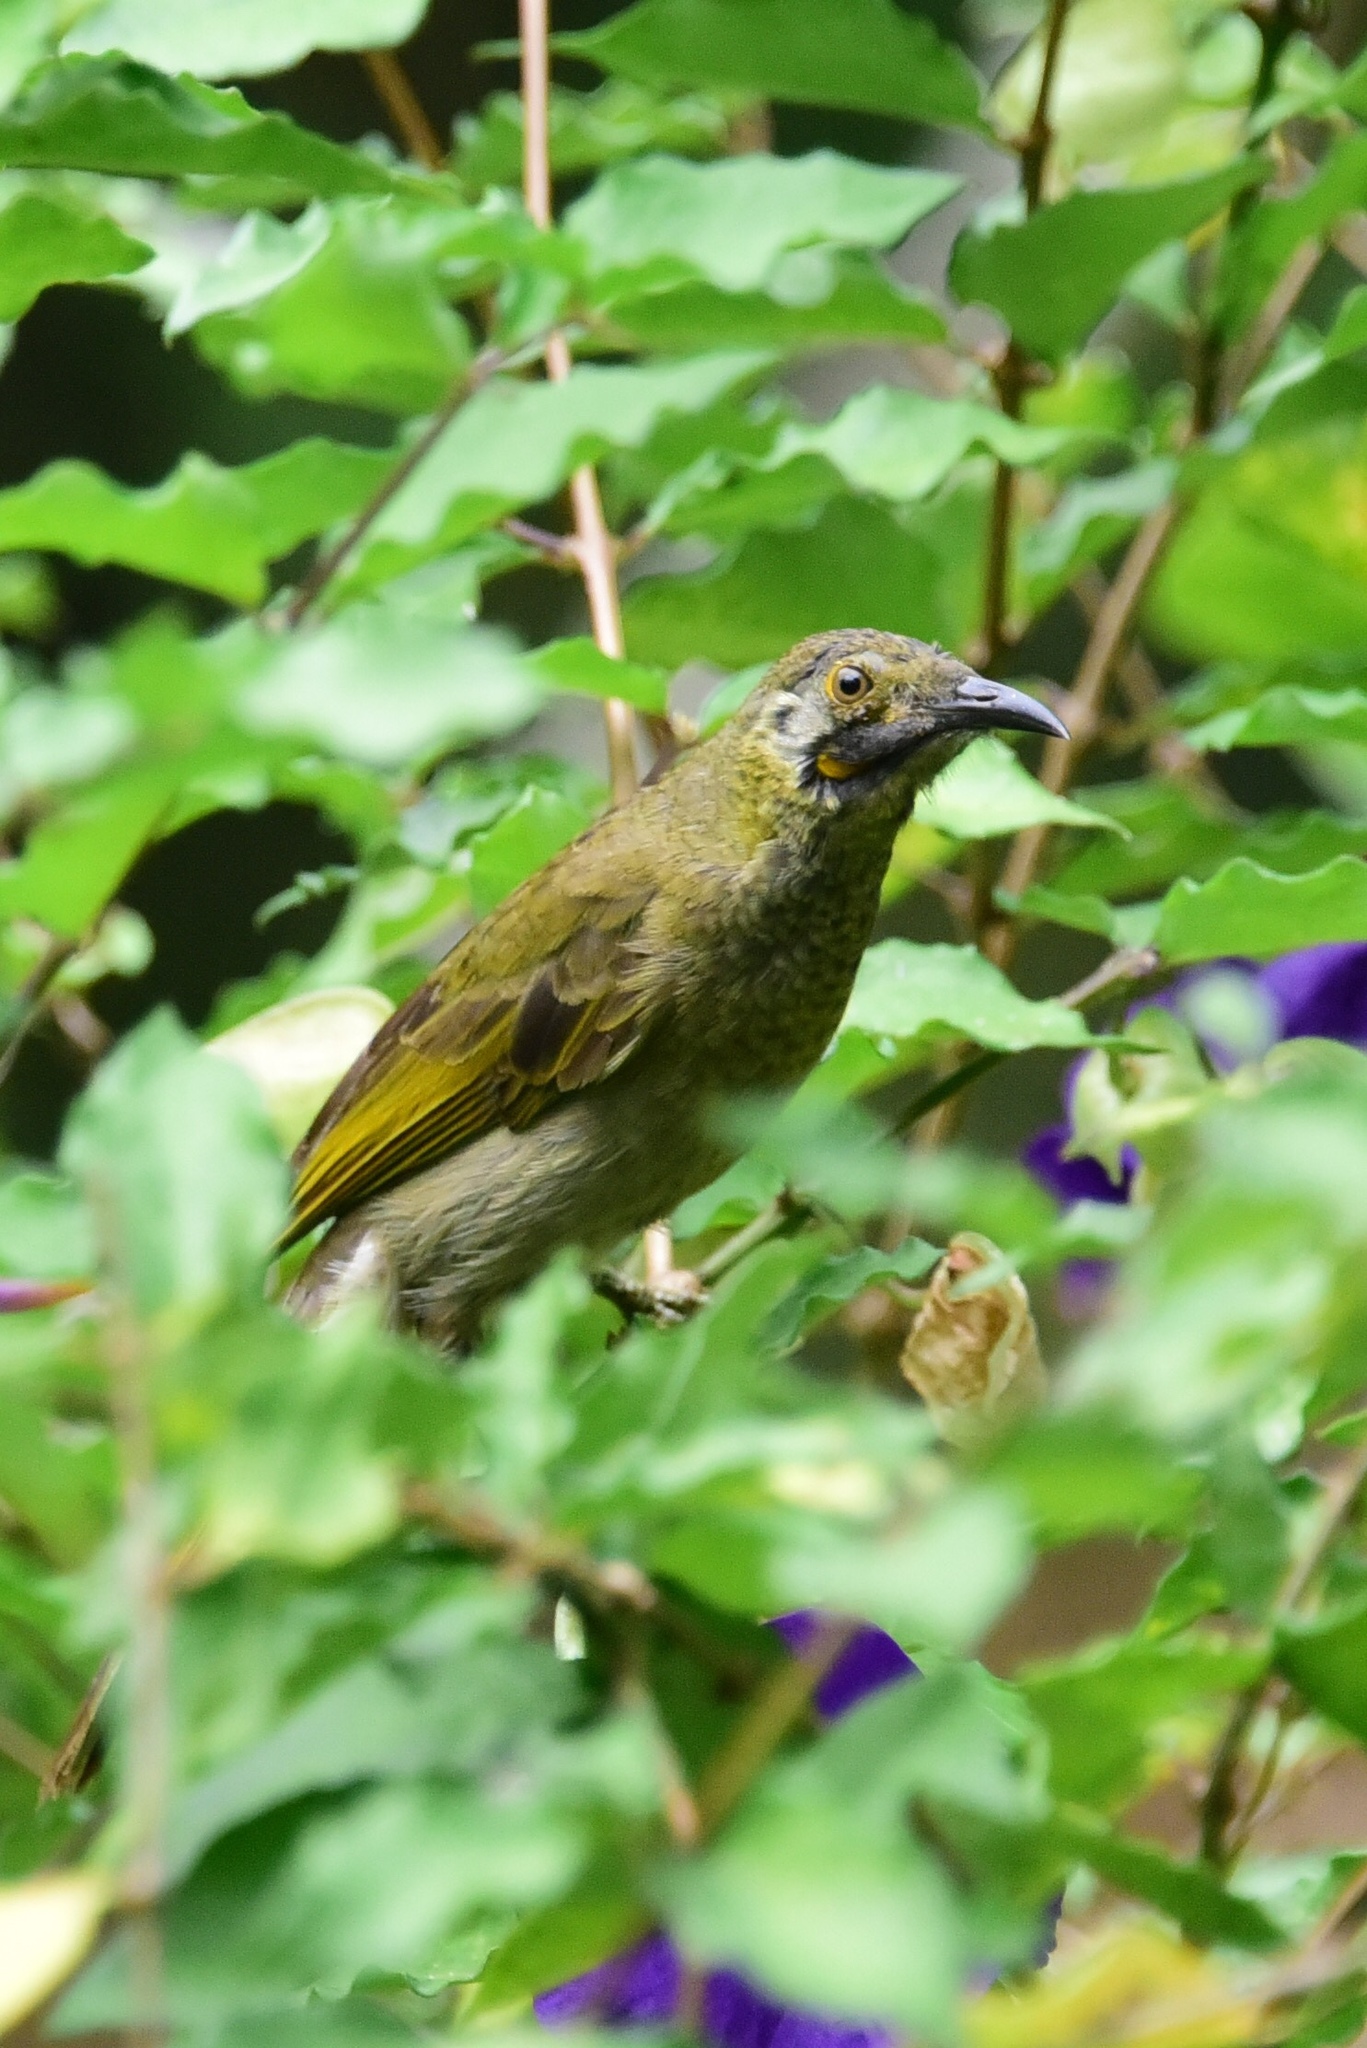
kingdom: Animalia
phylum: Chordata
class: Aves
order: Passeriformes
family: Meliphagidae
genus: Foulehaio
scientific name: Foulehaio procerior
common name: Kikau
